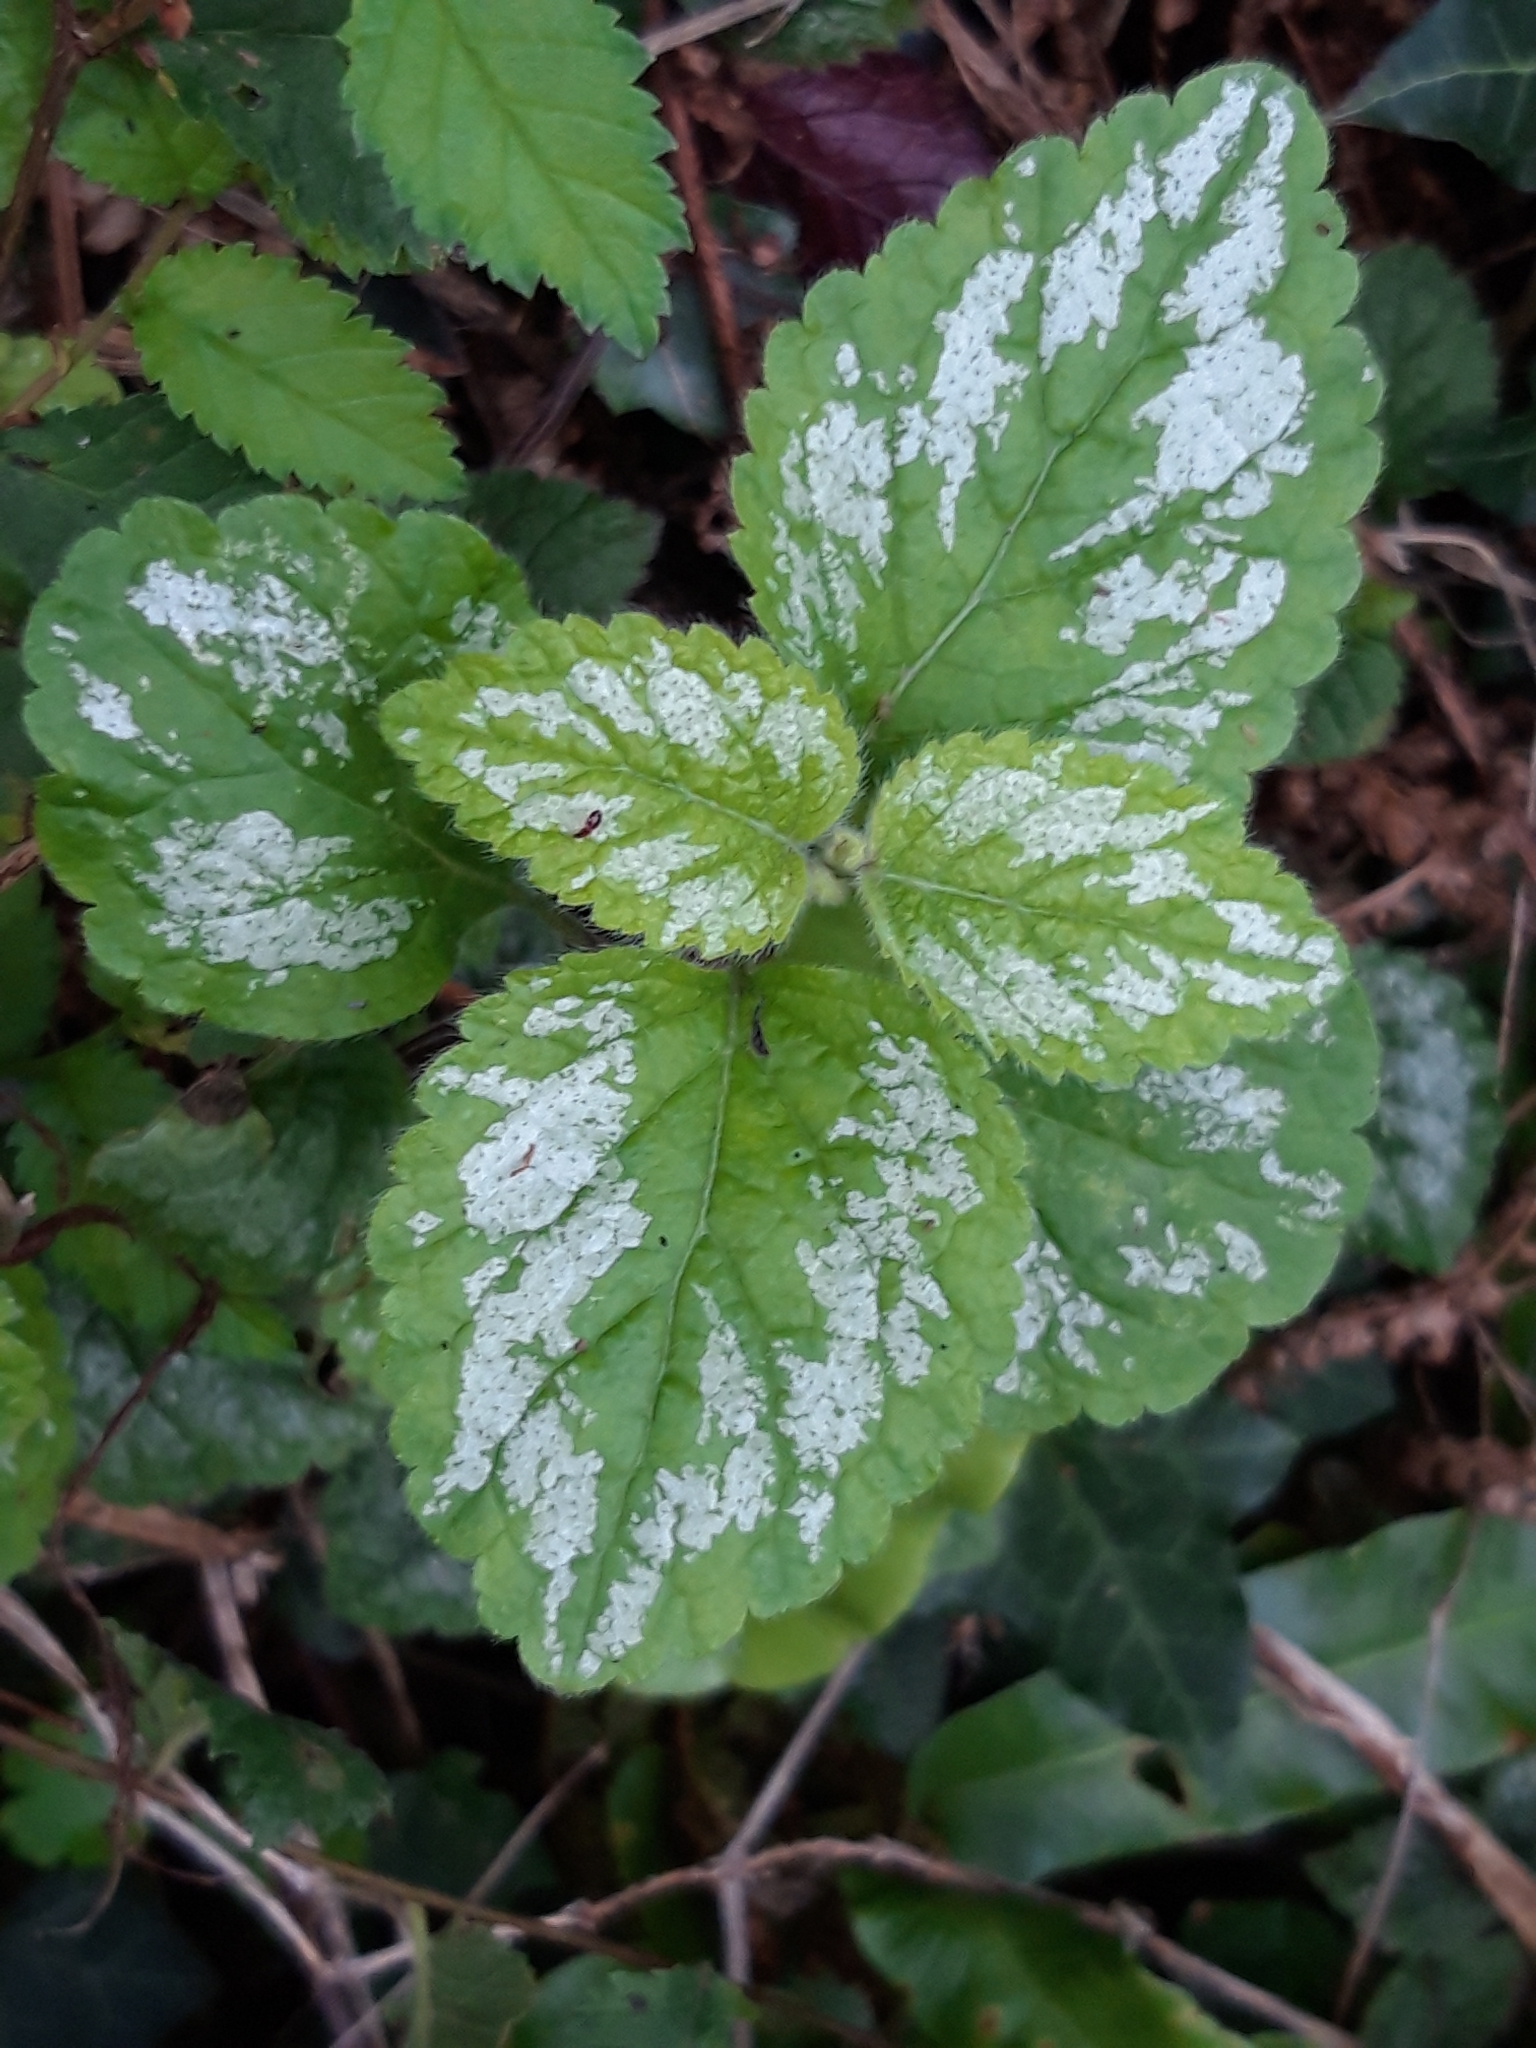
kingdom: Plantae
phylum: Tracheophyta
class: Magnoliopsida
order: Lamiales
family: Lamiaceae
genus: Lamium
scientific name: Lamium galeobdolon
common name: Yellow archangel
